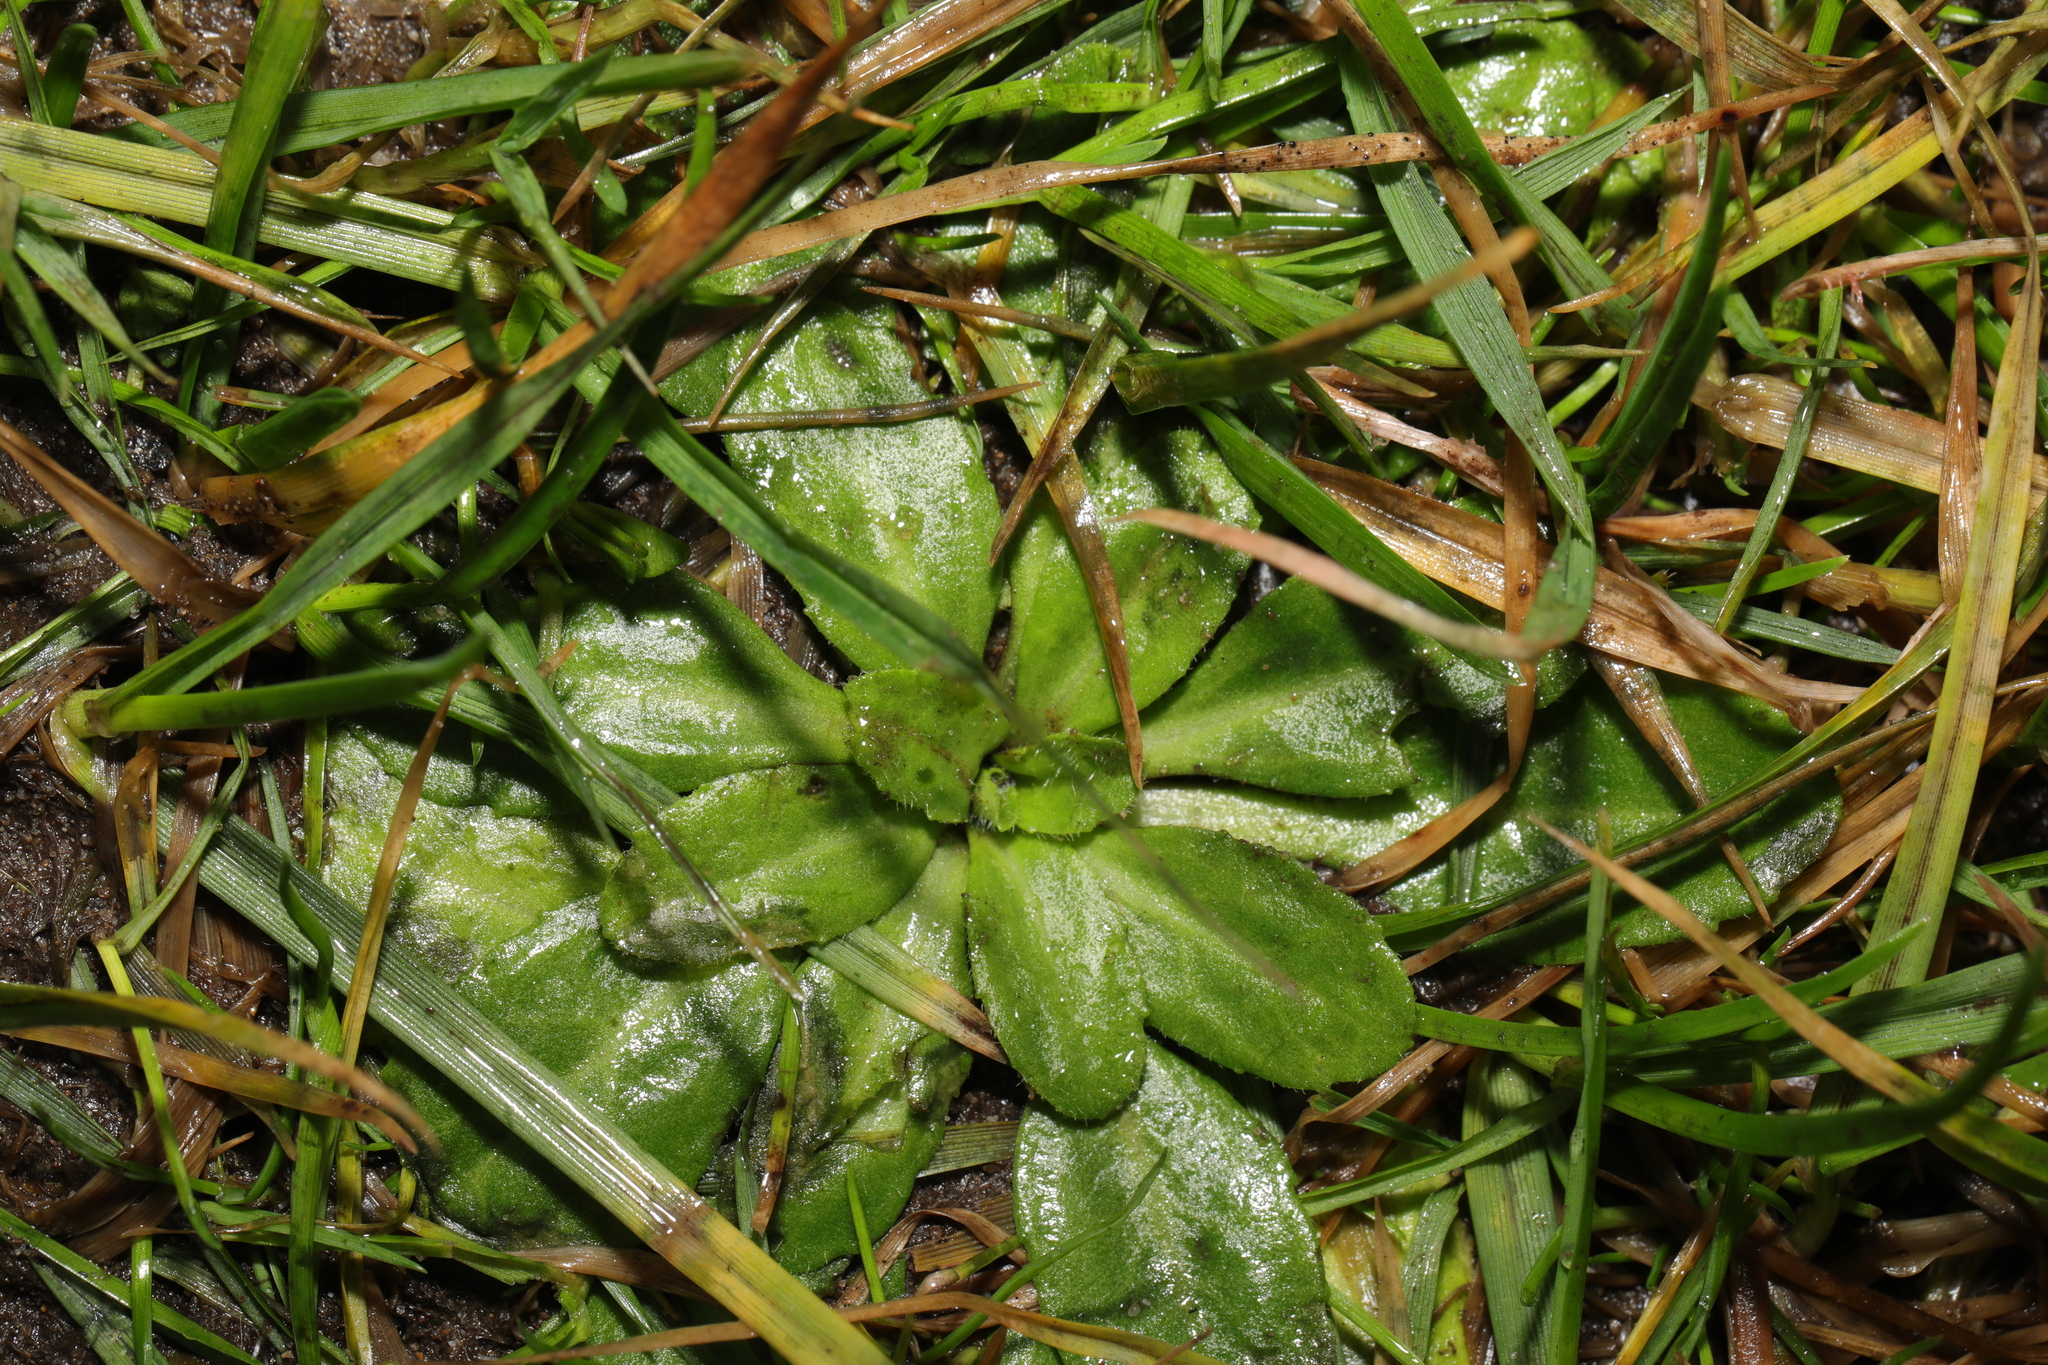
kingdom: Plantae
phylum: Tracheophyta
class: Magnoliopsida
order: Asterales
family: Asteraceae
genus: Bellis
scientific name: Bellis perennis
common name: Lawndaisy
